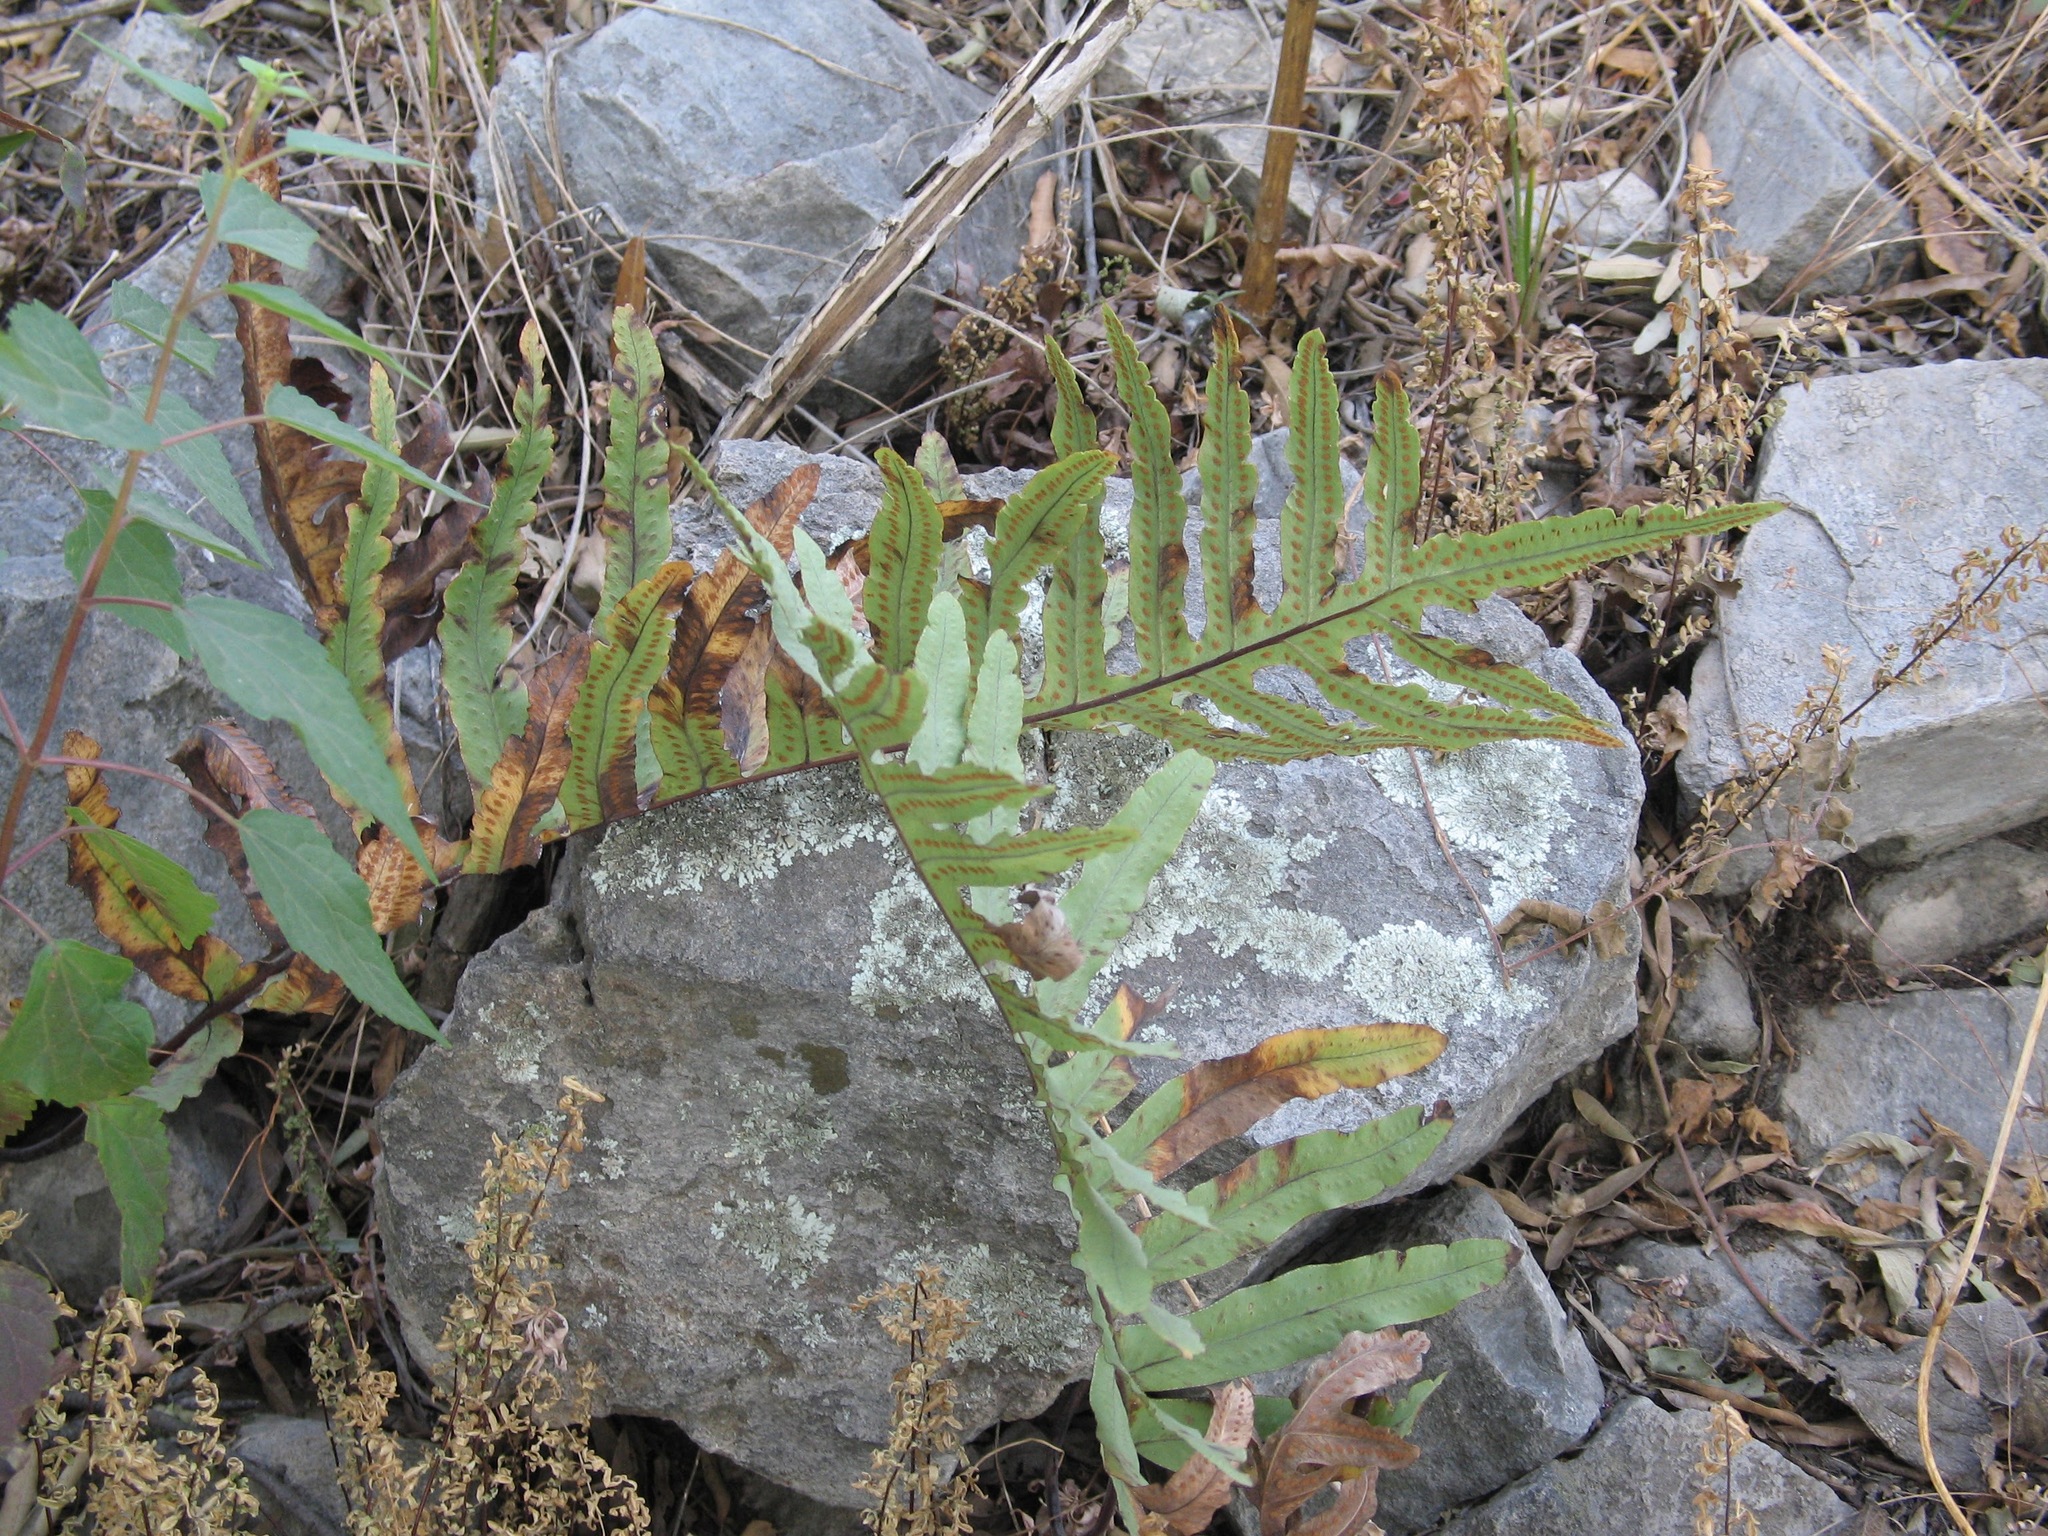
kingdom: Plantae
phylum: Tracheophyta
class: Polypodiopsida
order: Polypodiales
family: Polypodiaceae
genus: Phlebodium
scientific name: Phlebodium pseudoaureum
